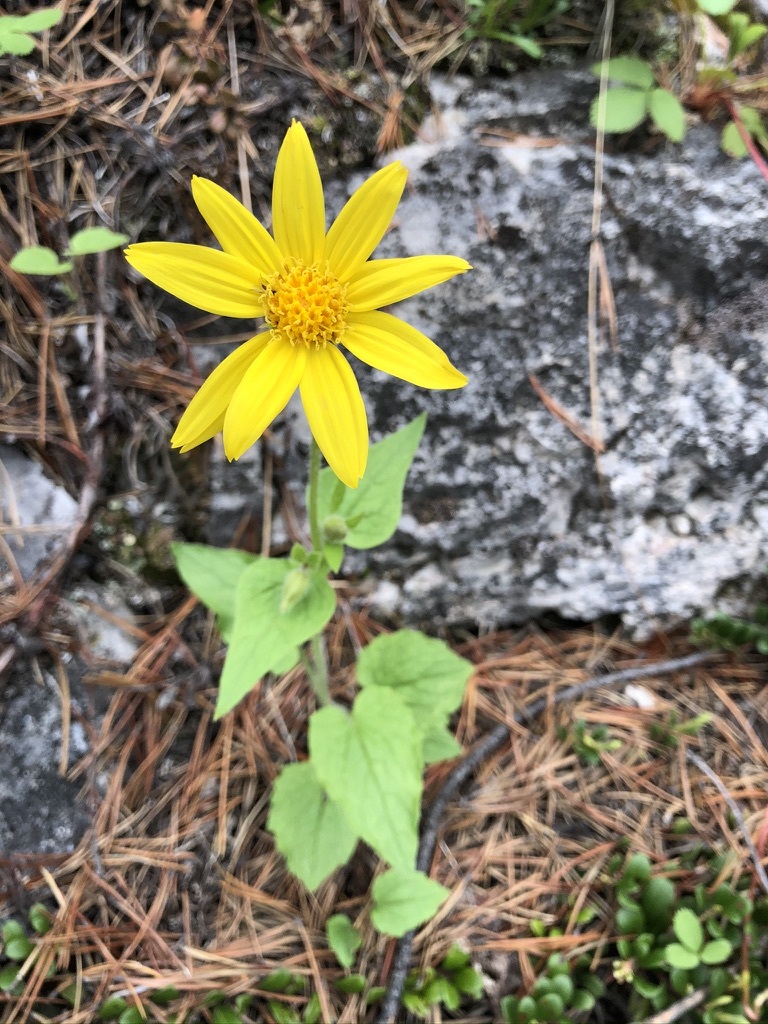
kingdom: Plantae
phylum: Tracheophyta
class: Magnoliopsida
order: Asterales
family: Asteraceae
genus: Arnica
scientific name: Arnica cordifolia
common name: Heart-leaf arnica
